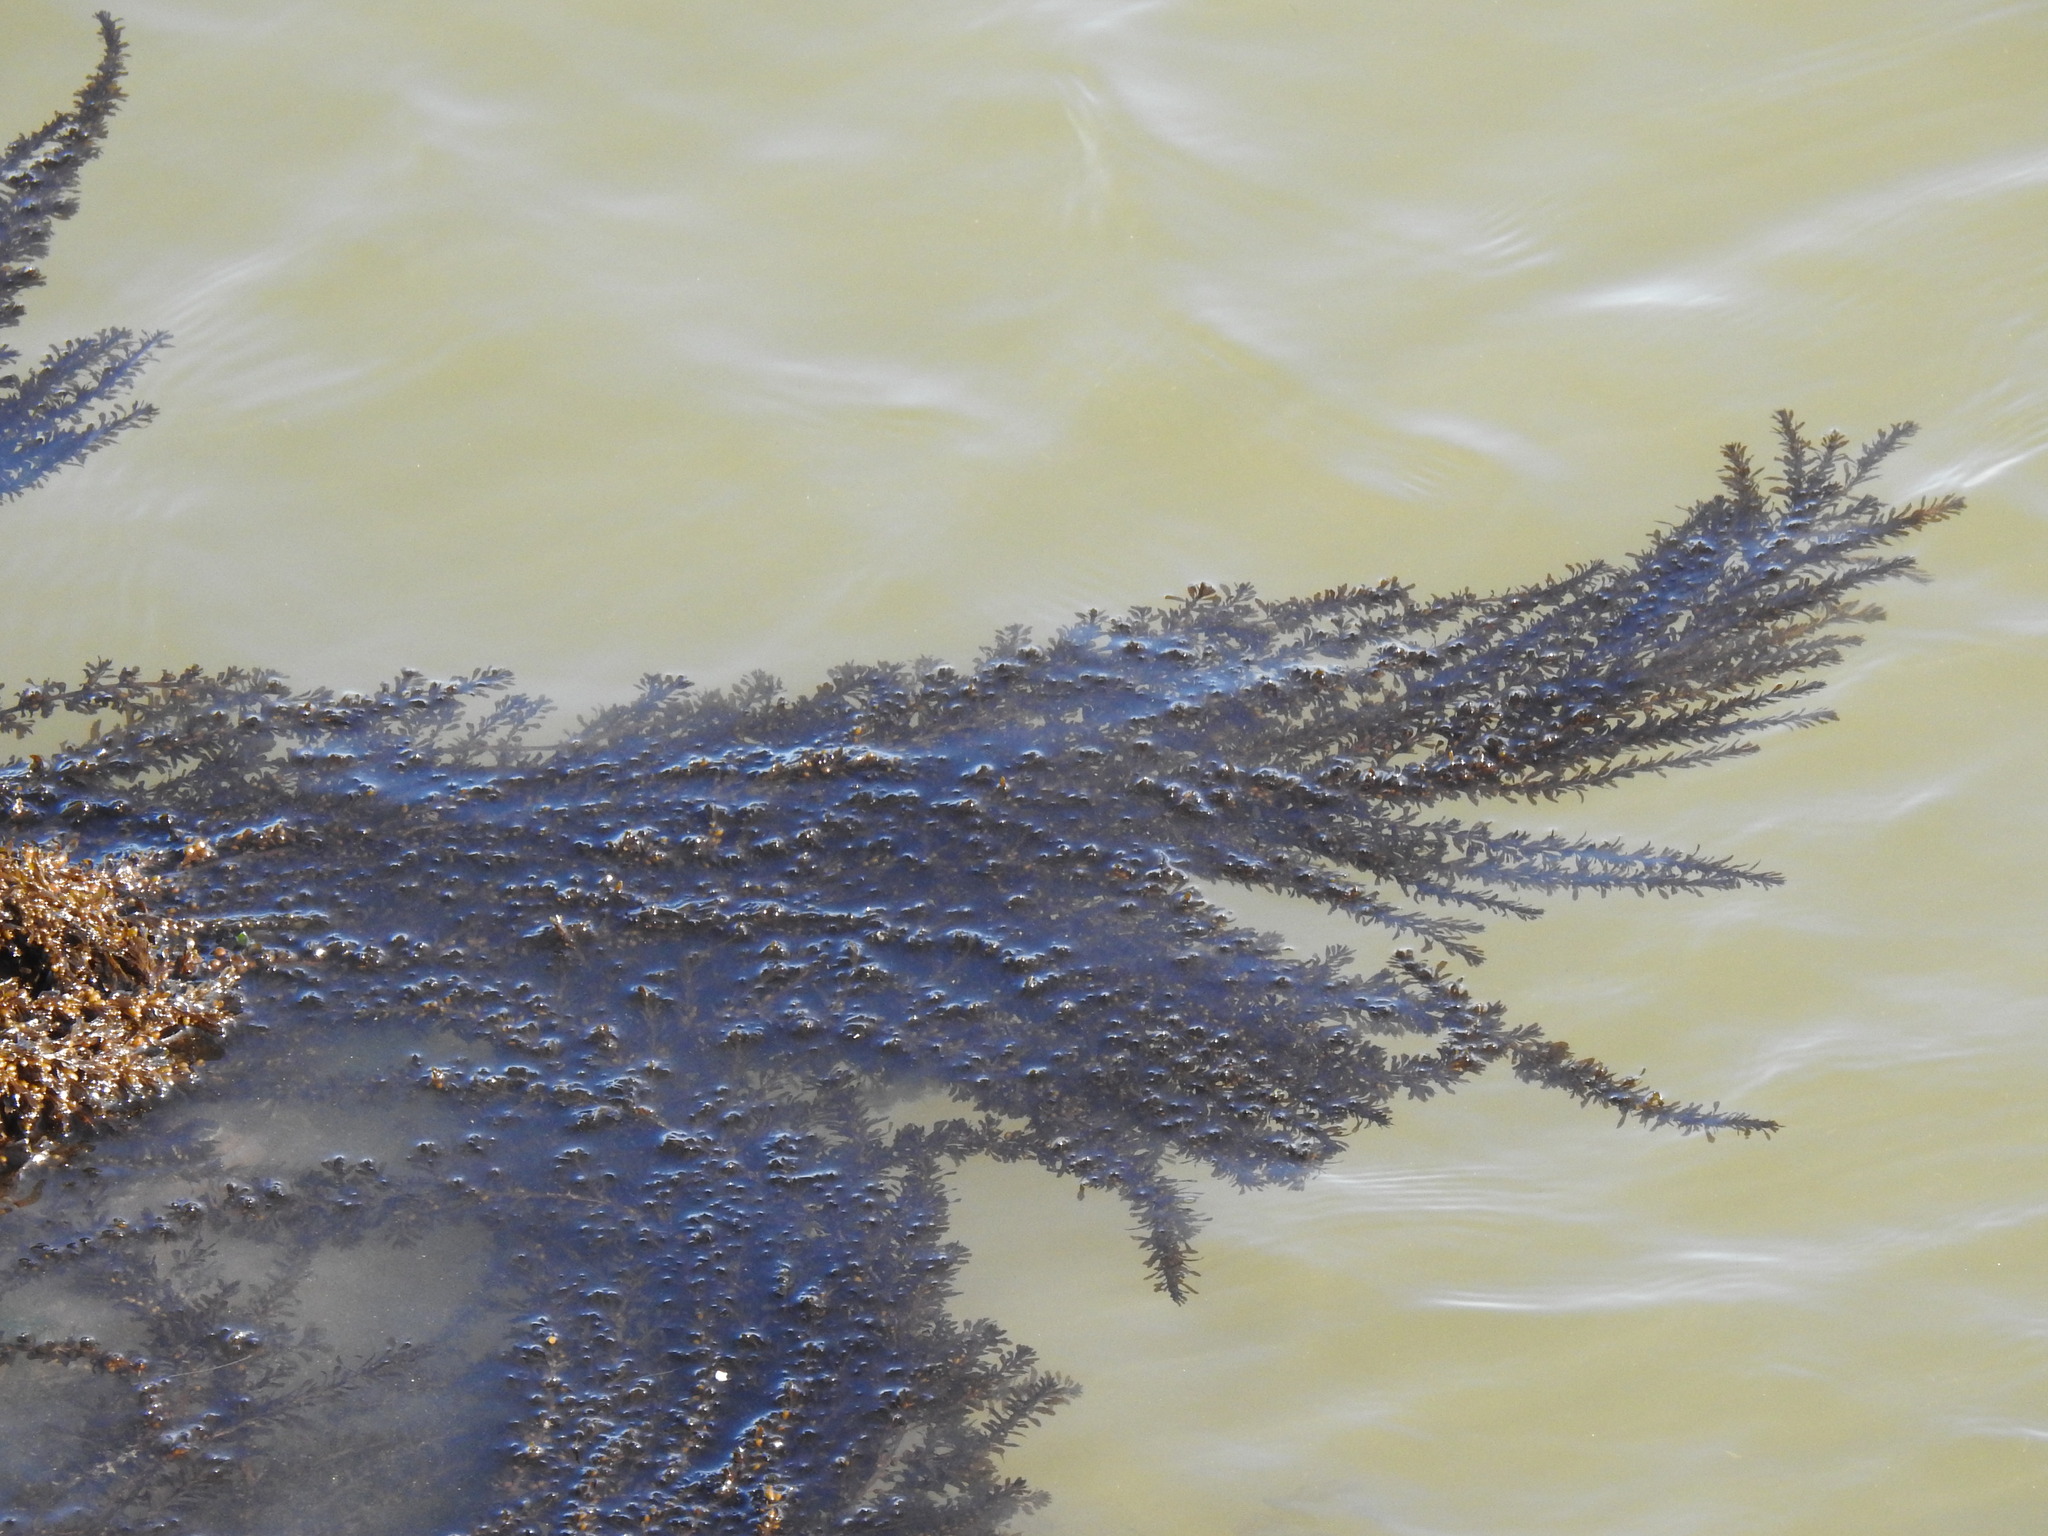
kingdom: Chromista
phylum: Ochrophyta
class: Phaeophyceae
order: Fucales
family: Sargassaceae
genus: Sargassum
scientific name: Sargassum muticum
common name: Japweed
